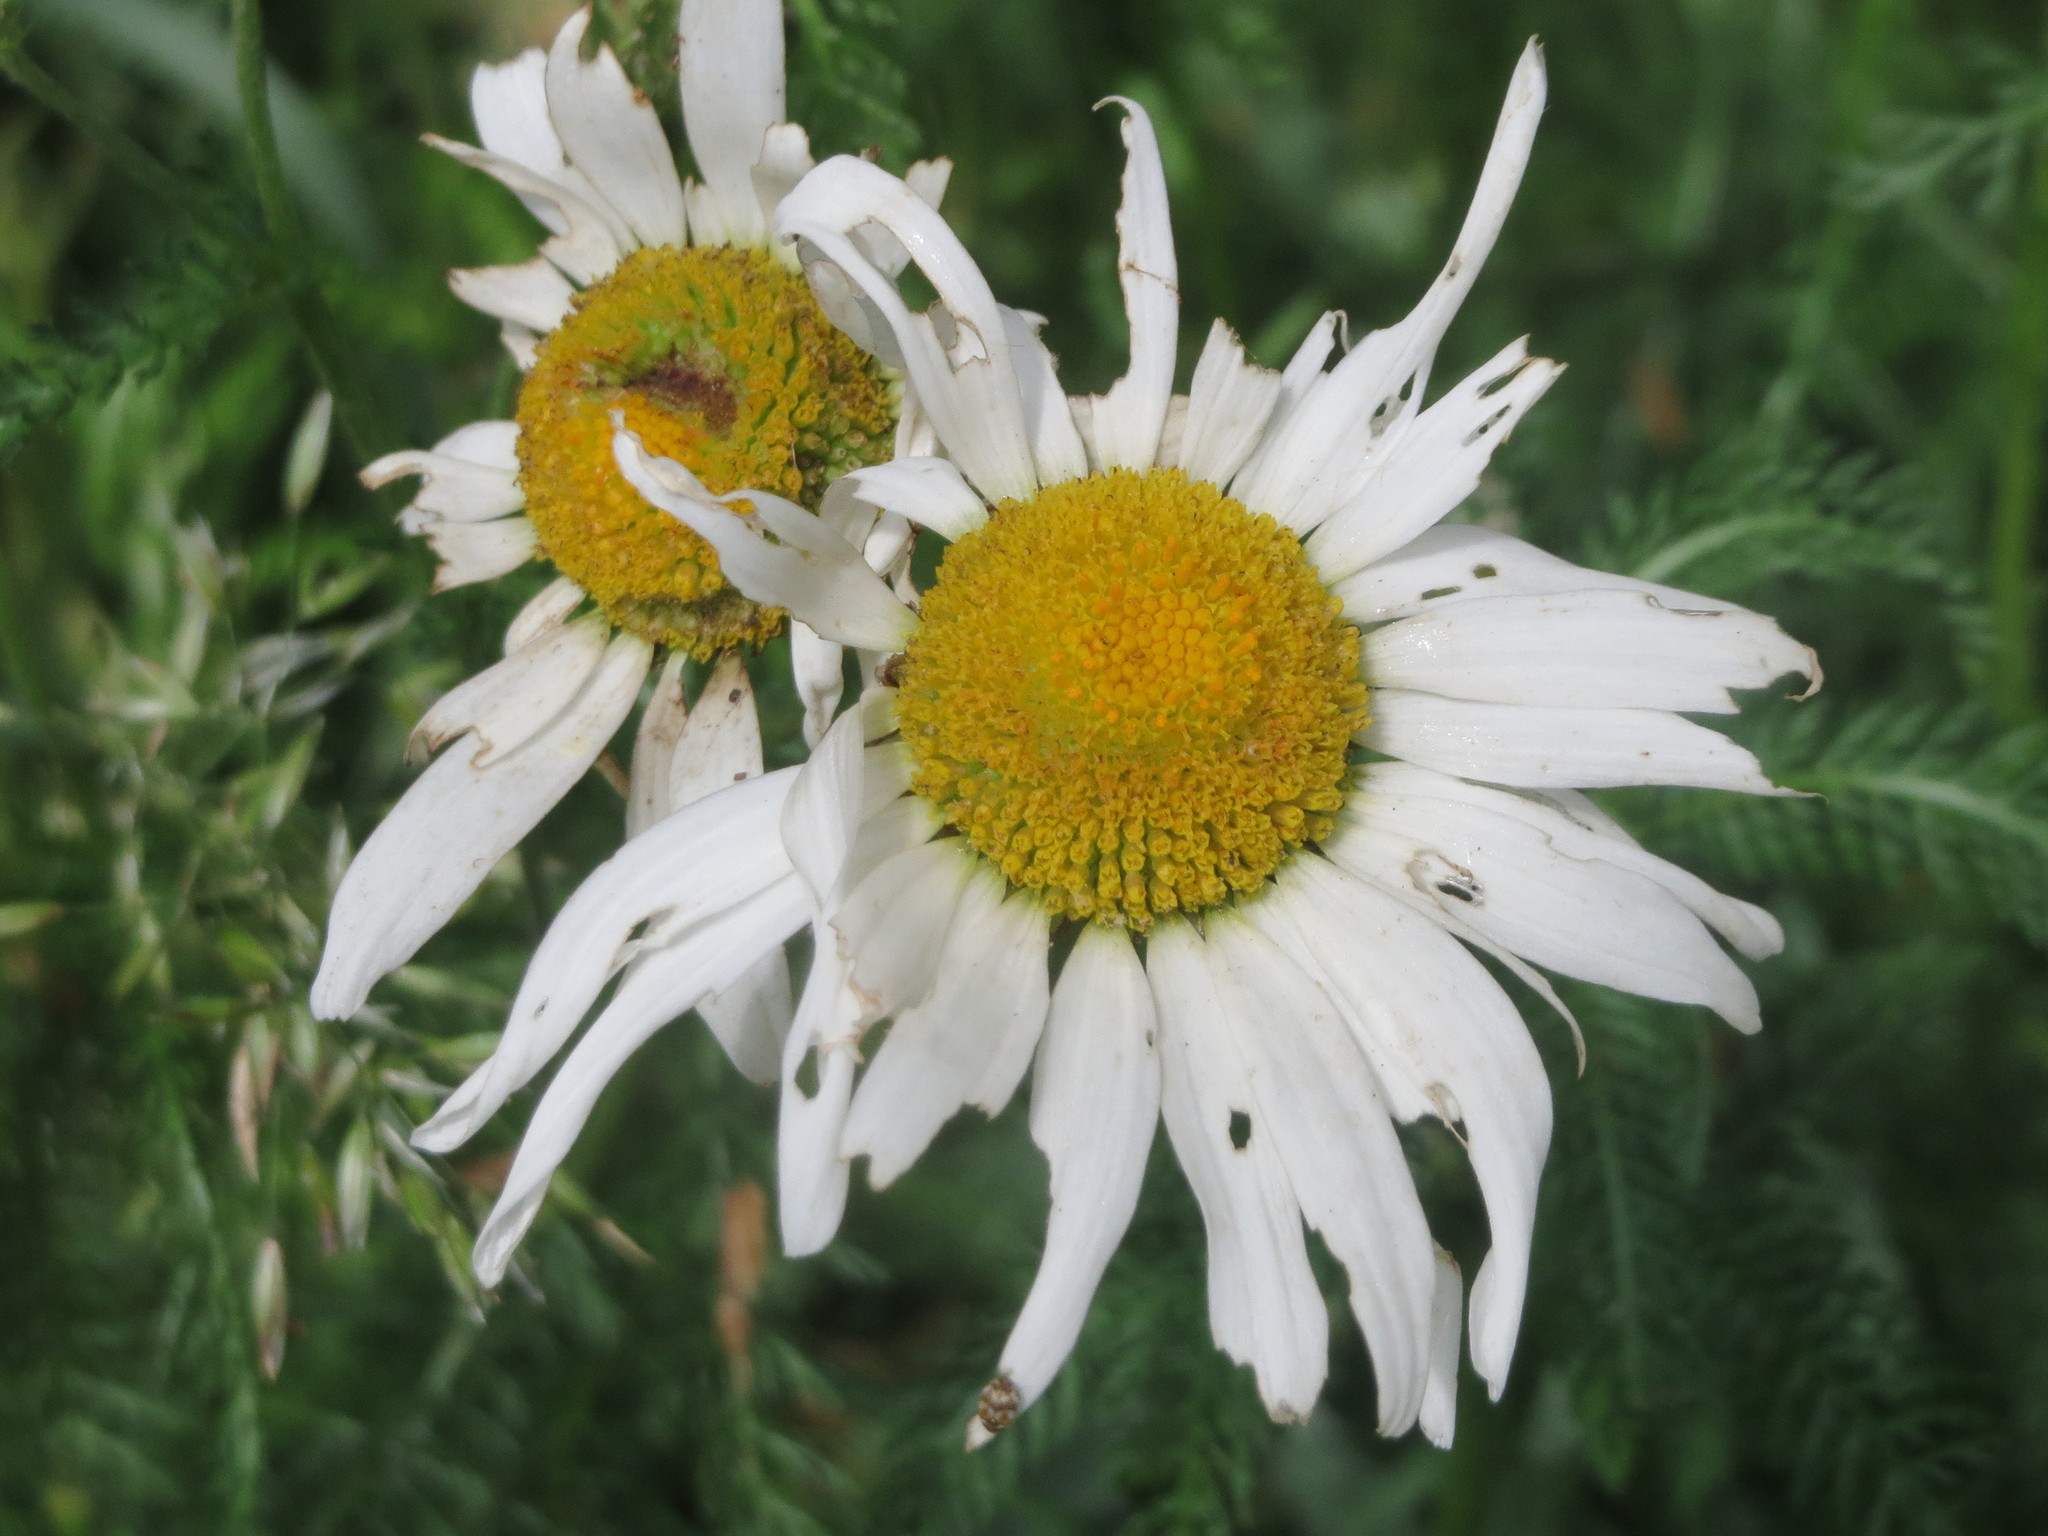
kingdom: Plantae
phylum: Tracheophyta
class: Magnoliopsida
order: Asterales
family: Asteraceae
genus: Leucanthemum
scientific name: Leucanthemum vulgare
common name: Oxeye daisy
